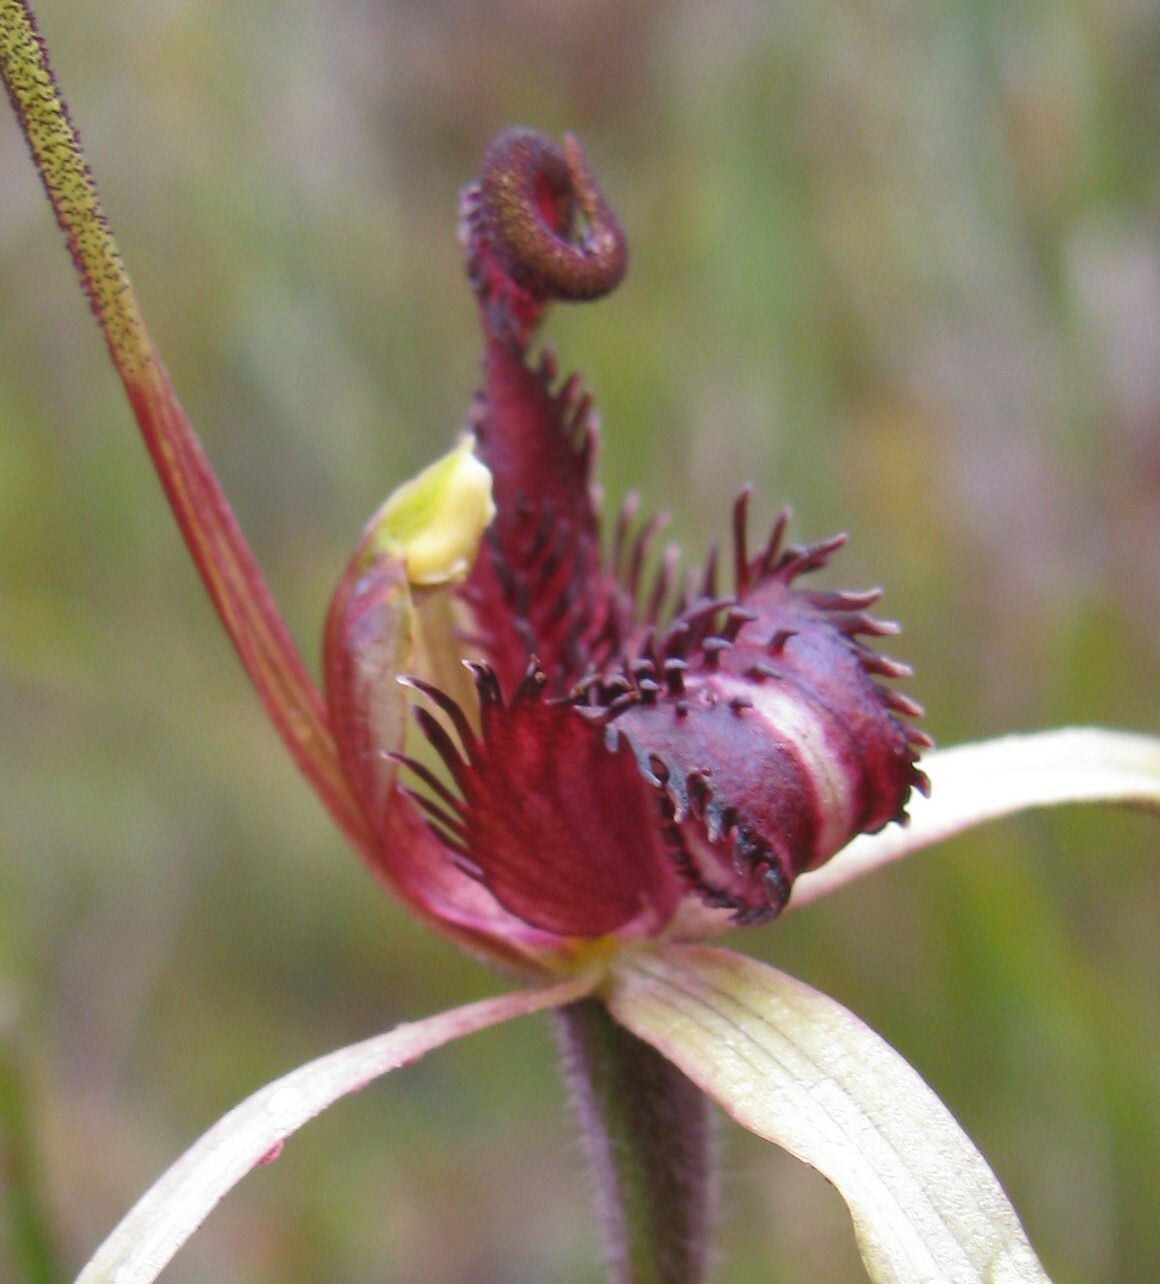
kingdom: Plantae
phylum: Tracheophyta
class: Liliopsida
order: Asparagales
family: Orchidaceae
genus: Caladenia
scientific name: Caladenia dienema
